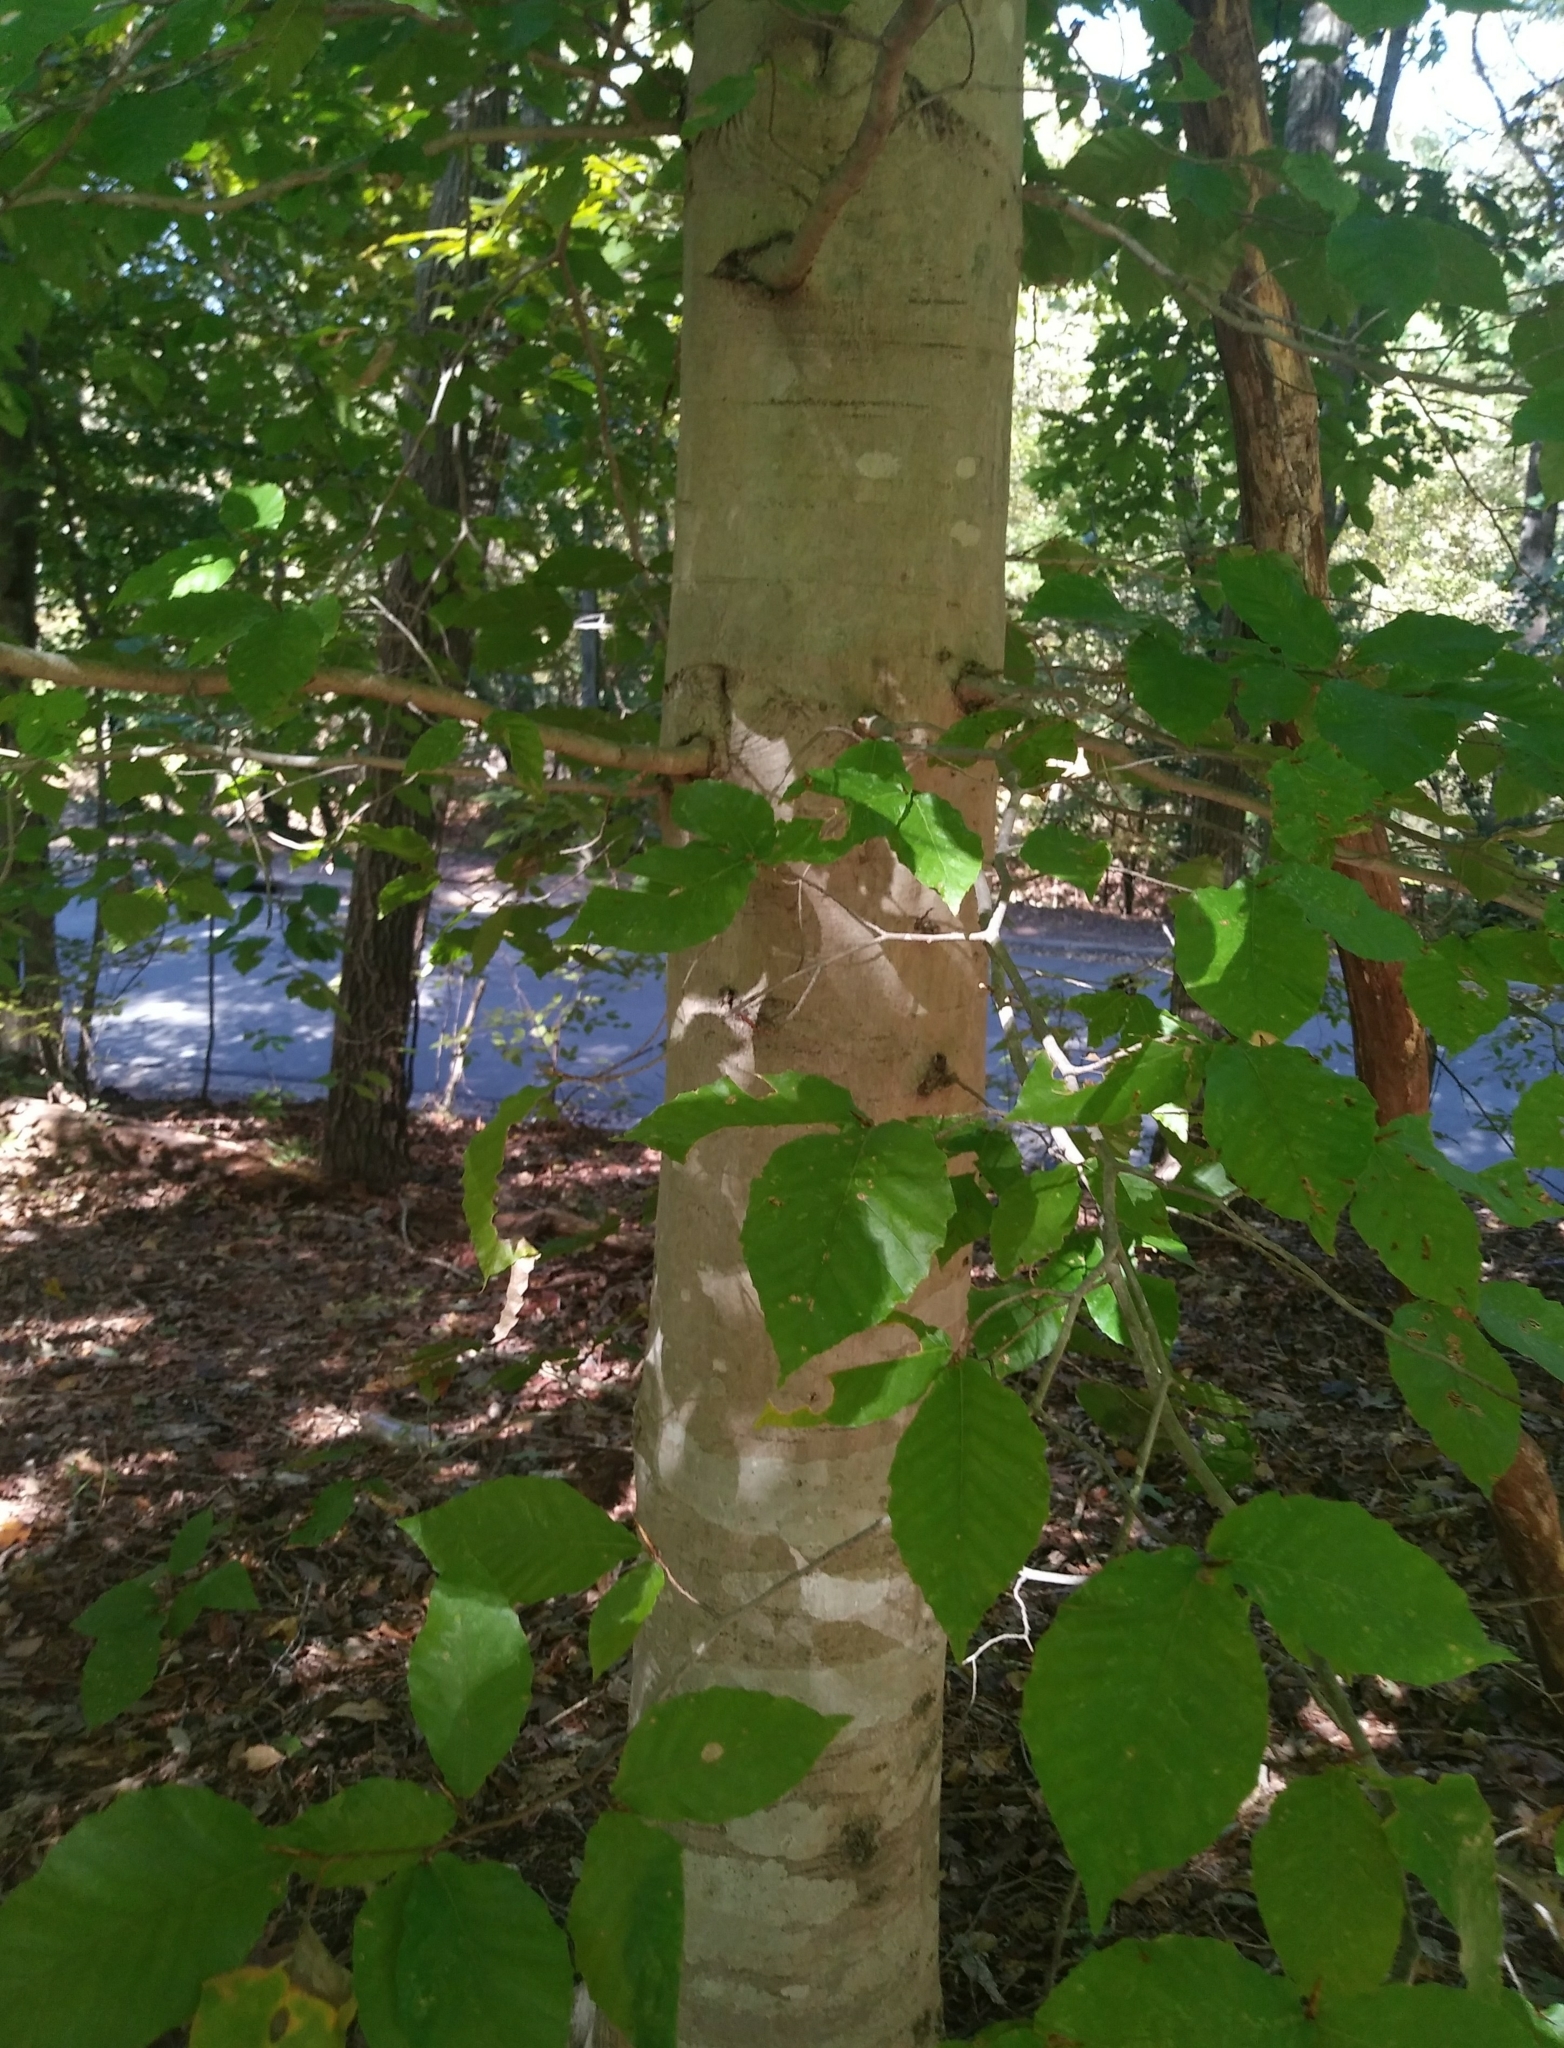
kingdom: Plantae
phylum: Tracheophyta
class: Magnoliopsida
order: Fagales
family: Fagaceae
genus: Fagus
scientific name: Fagus grandifolia
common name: American beech
